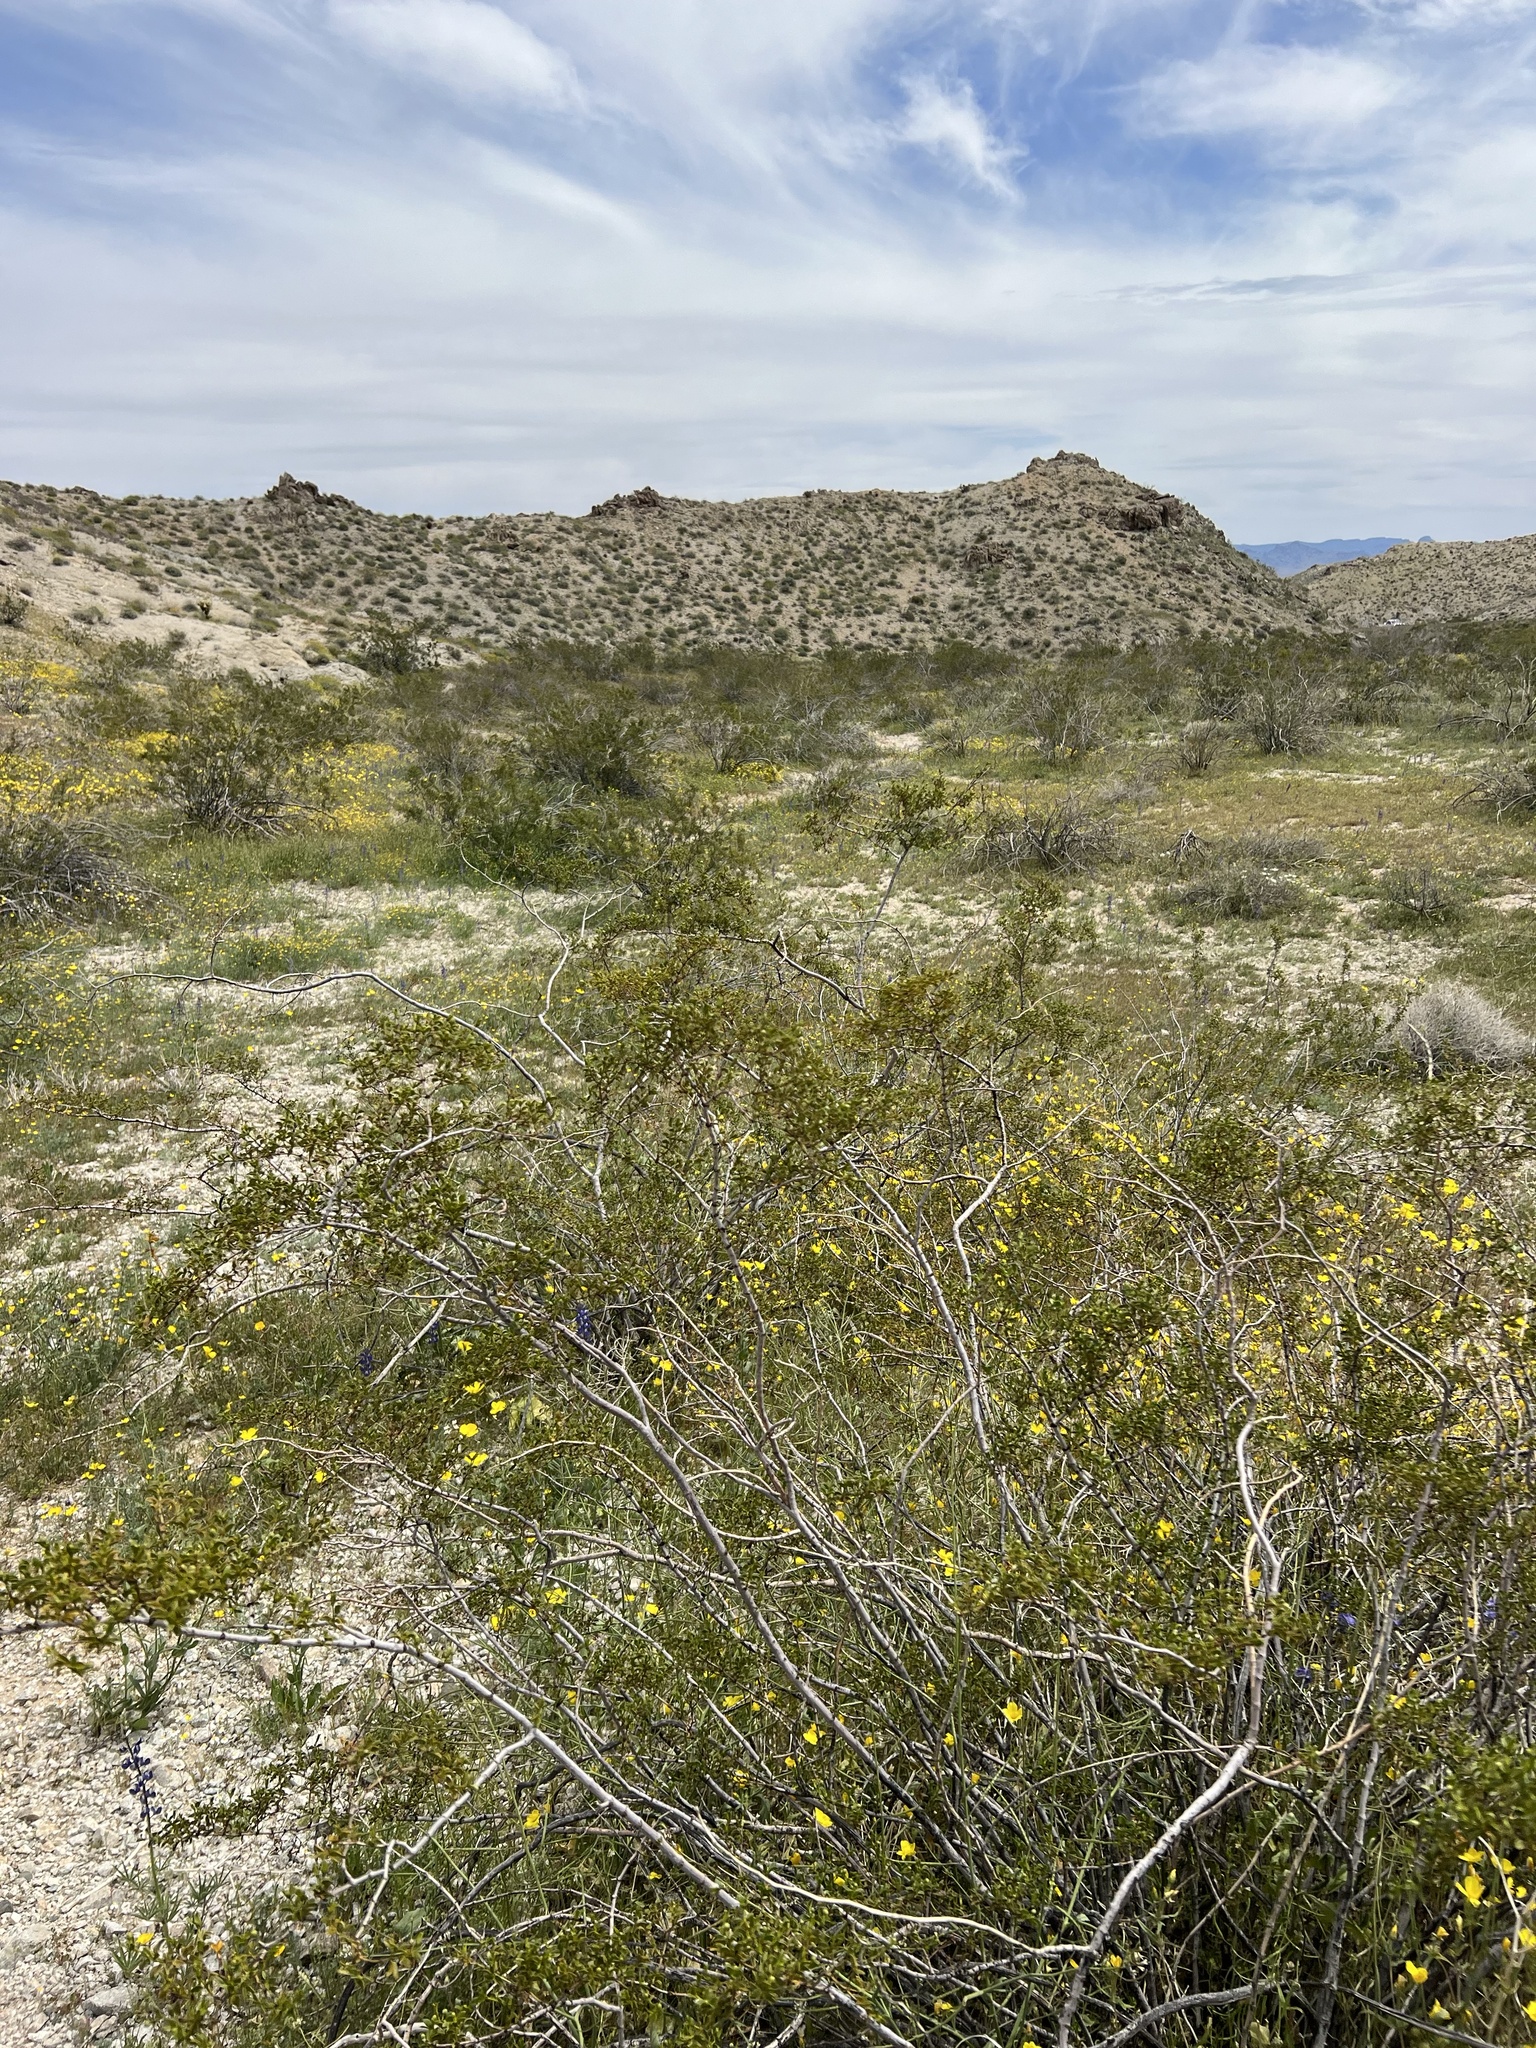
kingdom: Plantae
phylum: Tracheophyta
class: Magnoliopsida
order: Zygophyllales
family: Zygophyllaceae
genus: Larrea
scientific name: Larrea tridentata
